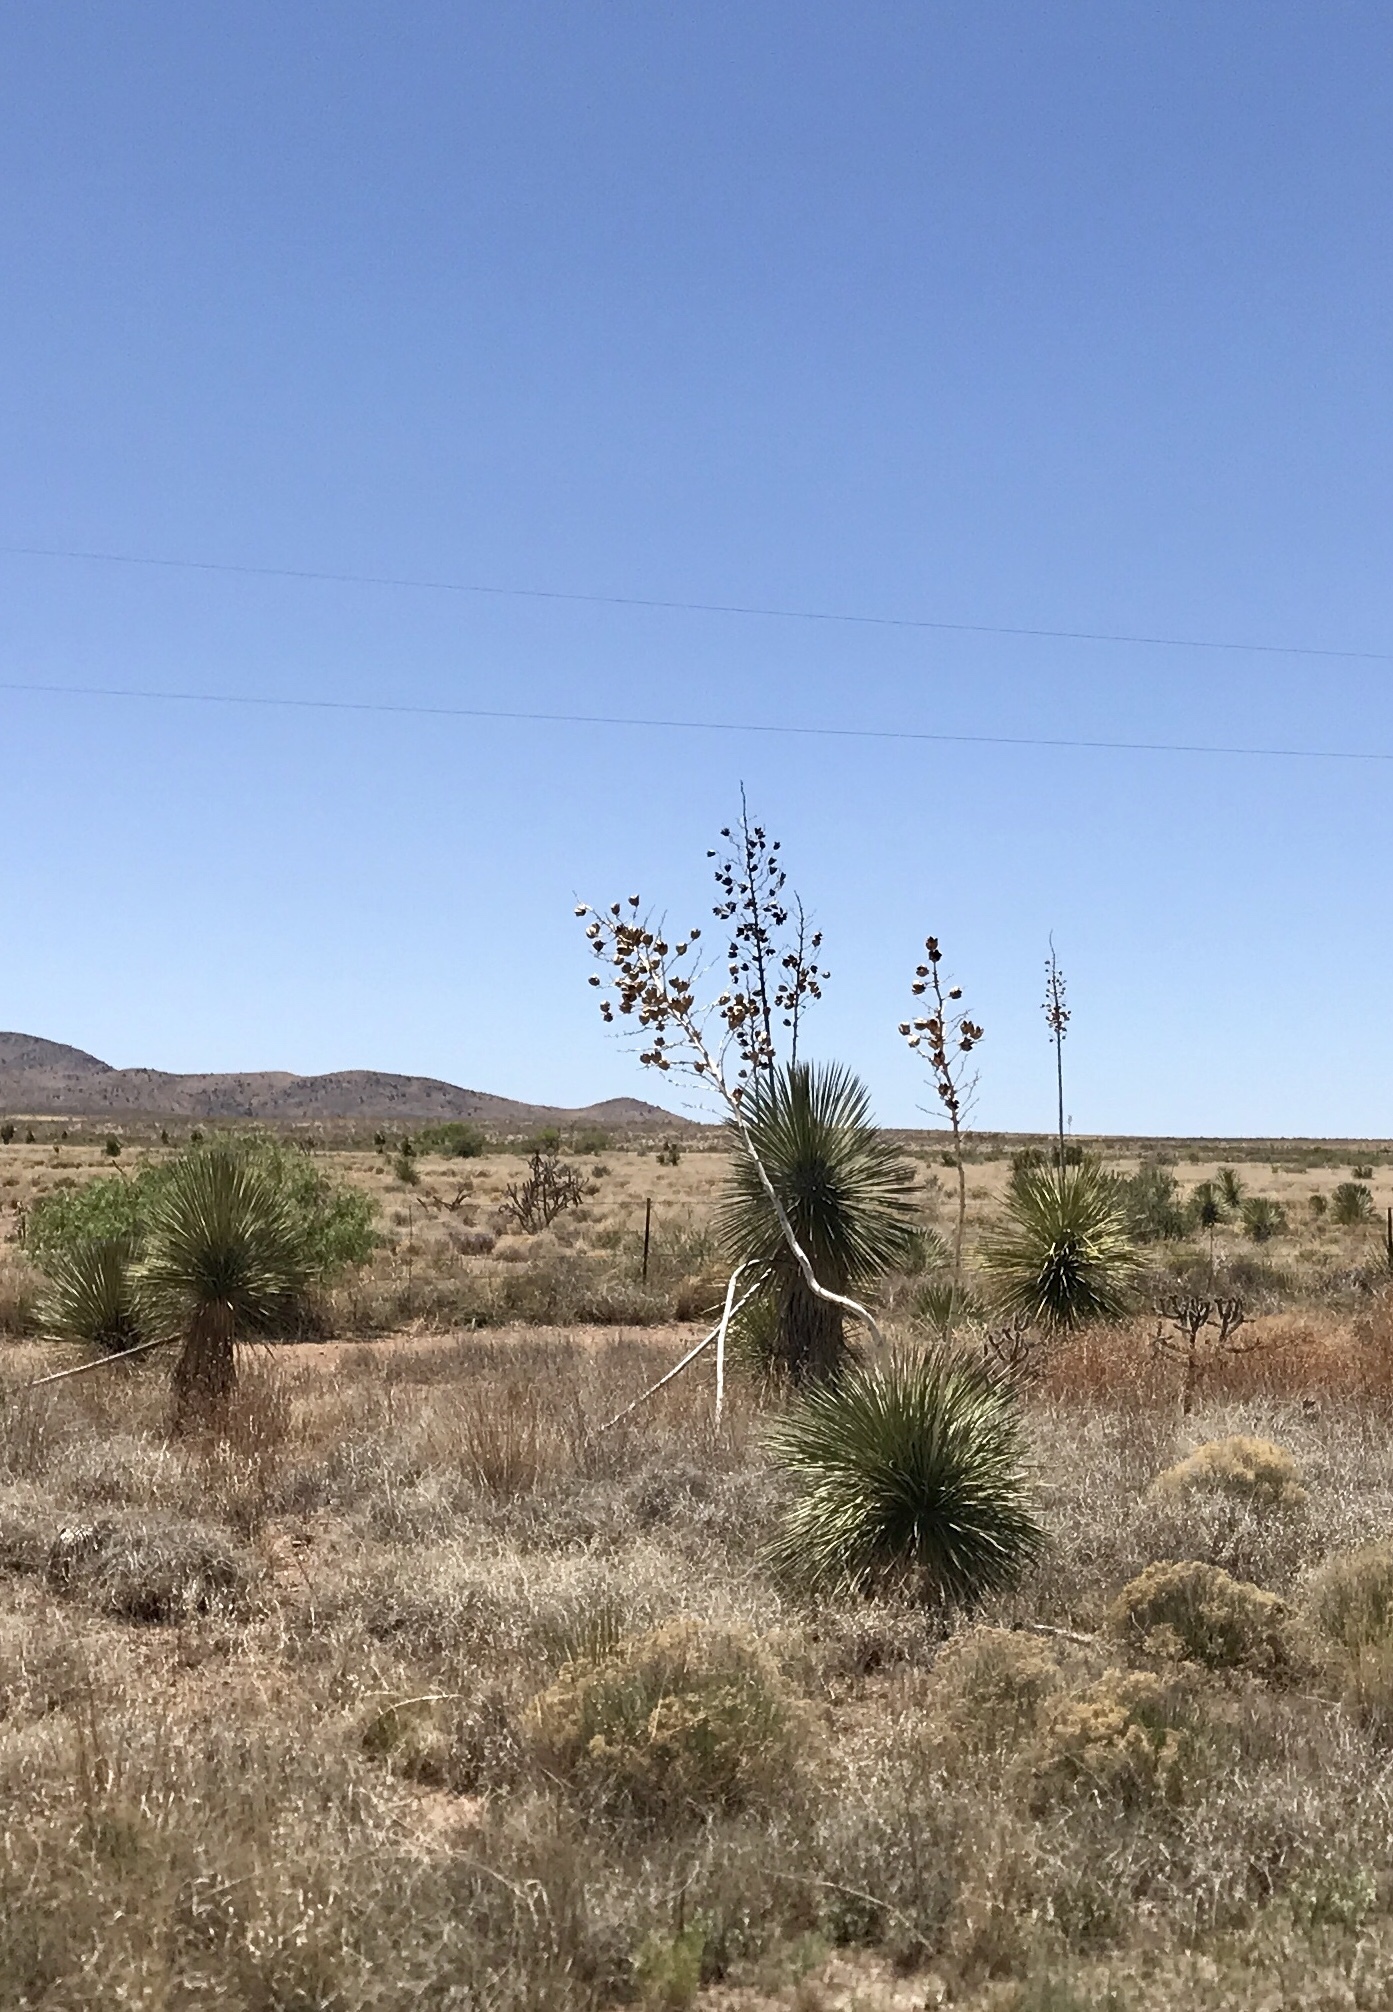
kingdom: Plantae
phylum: Tracheophyta
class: Liliopsida
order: Asparagales
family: Asparagaceae
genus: Yucca
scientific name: Yucca elata
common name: Palmella
